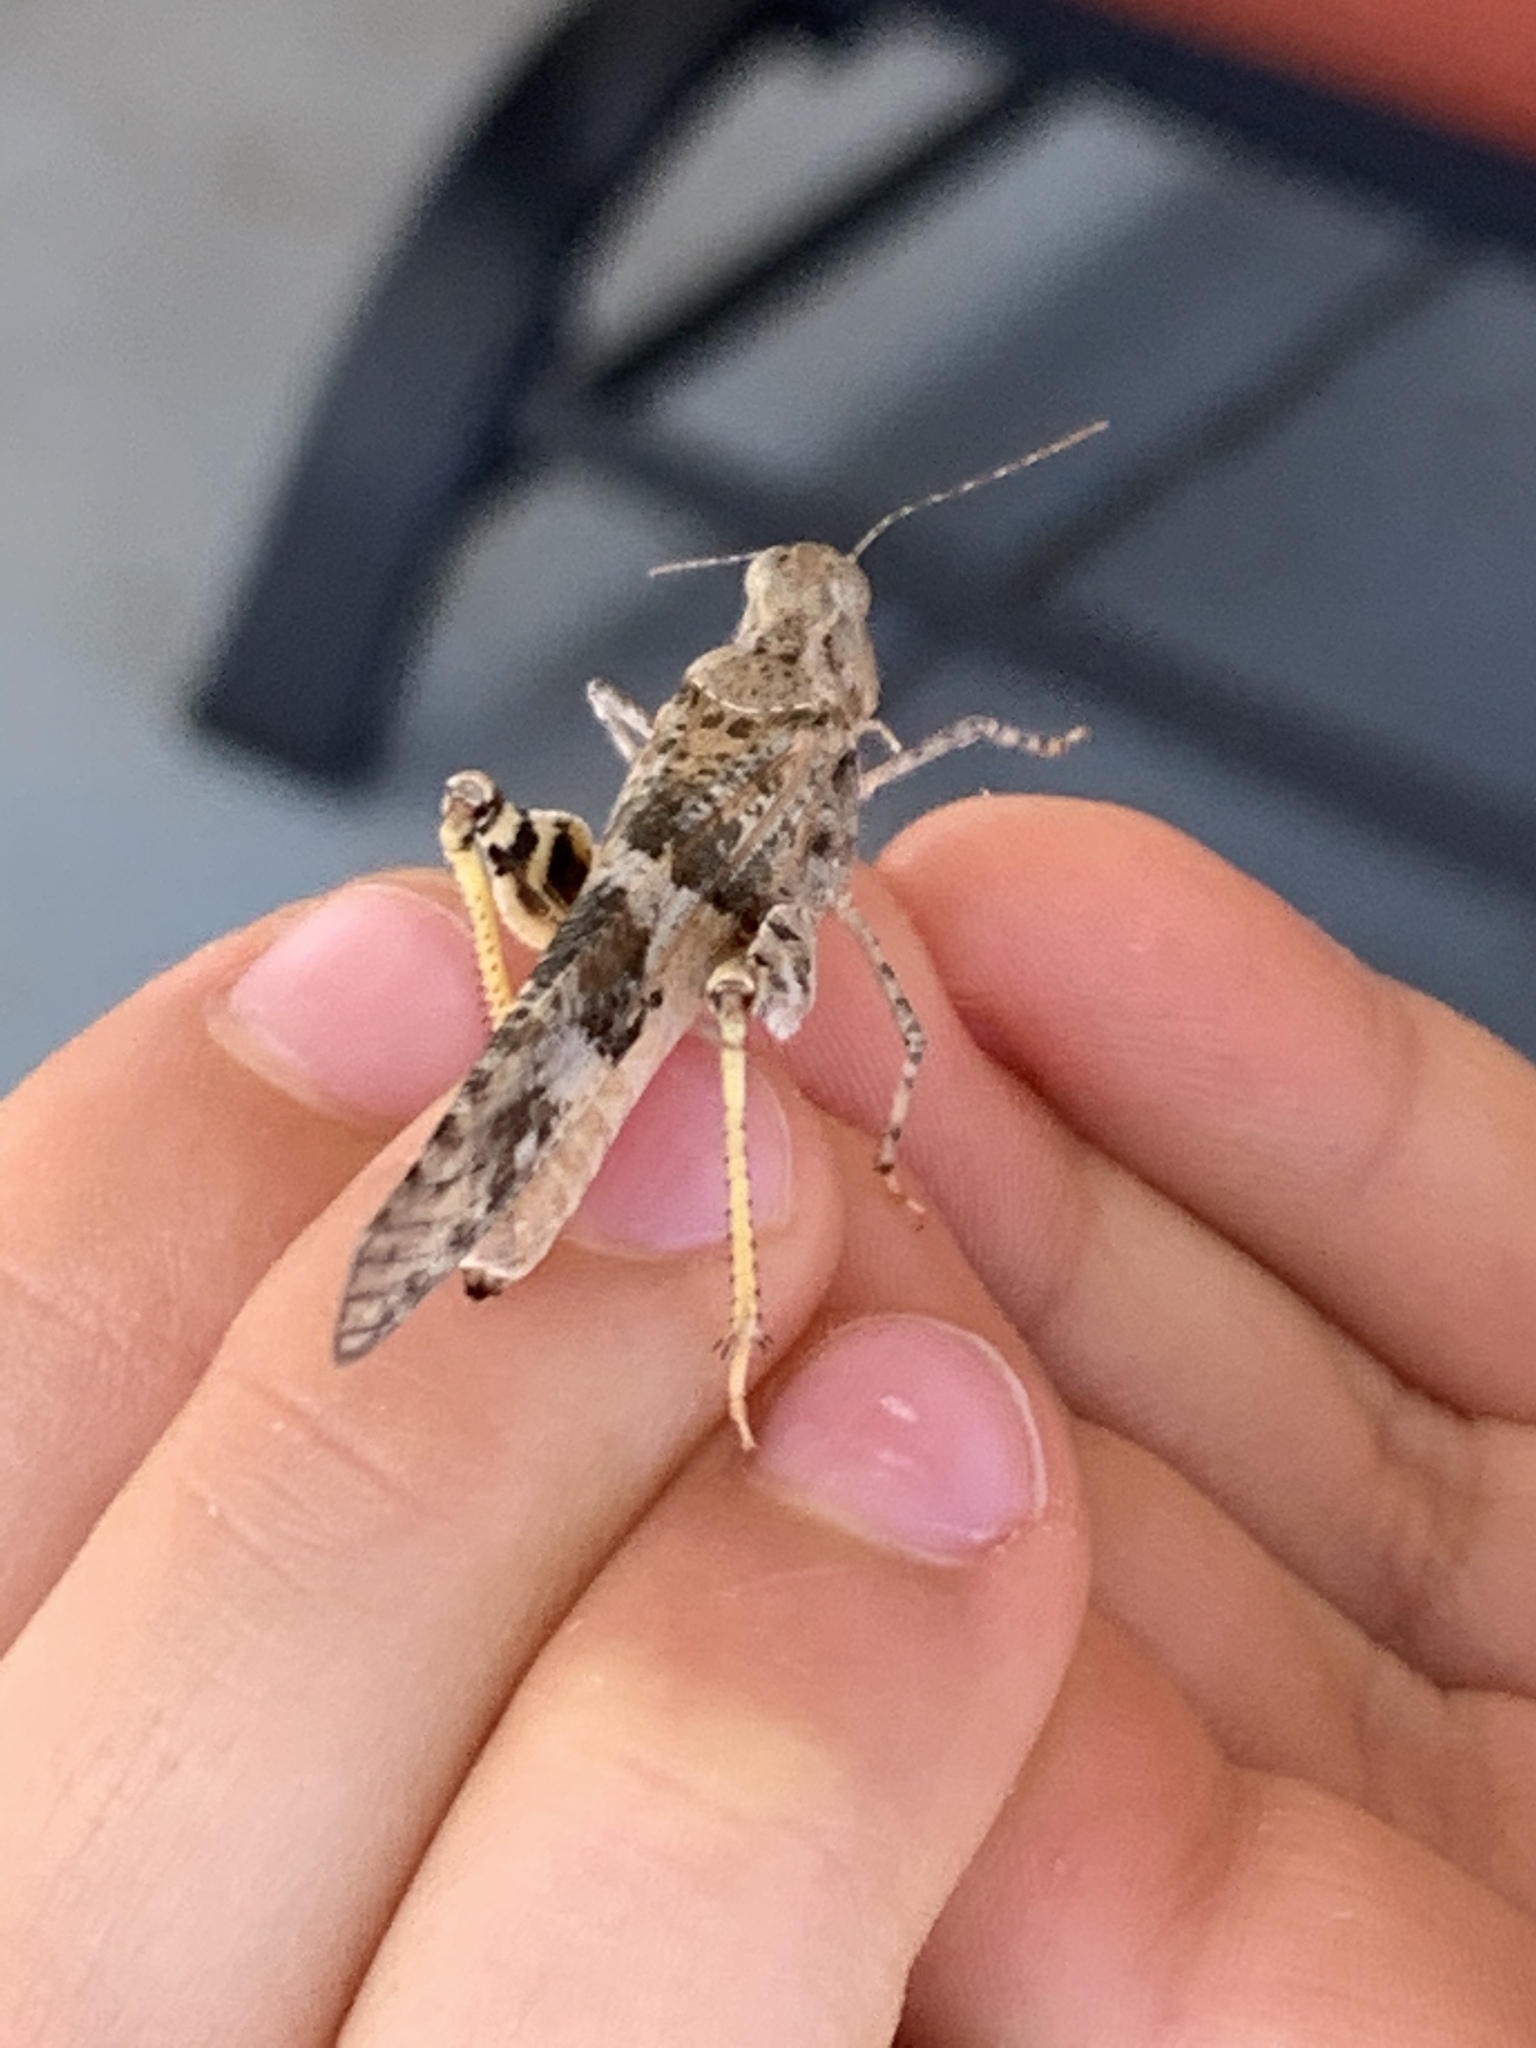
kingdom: Animalia
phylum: Arthropoda
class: Insecta
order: Orthoptera
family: Acrididae
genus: Trimerotropis
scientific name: Trimerotropis pallidipennis
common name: Pallid-winged grasshopper
